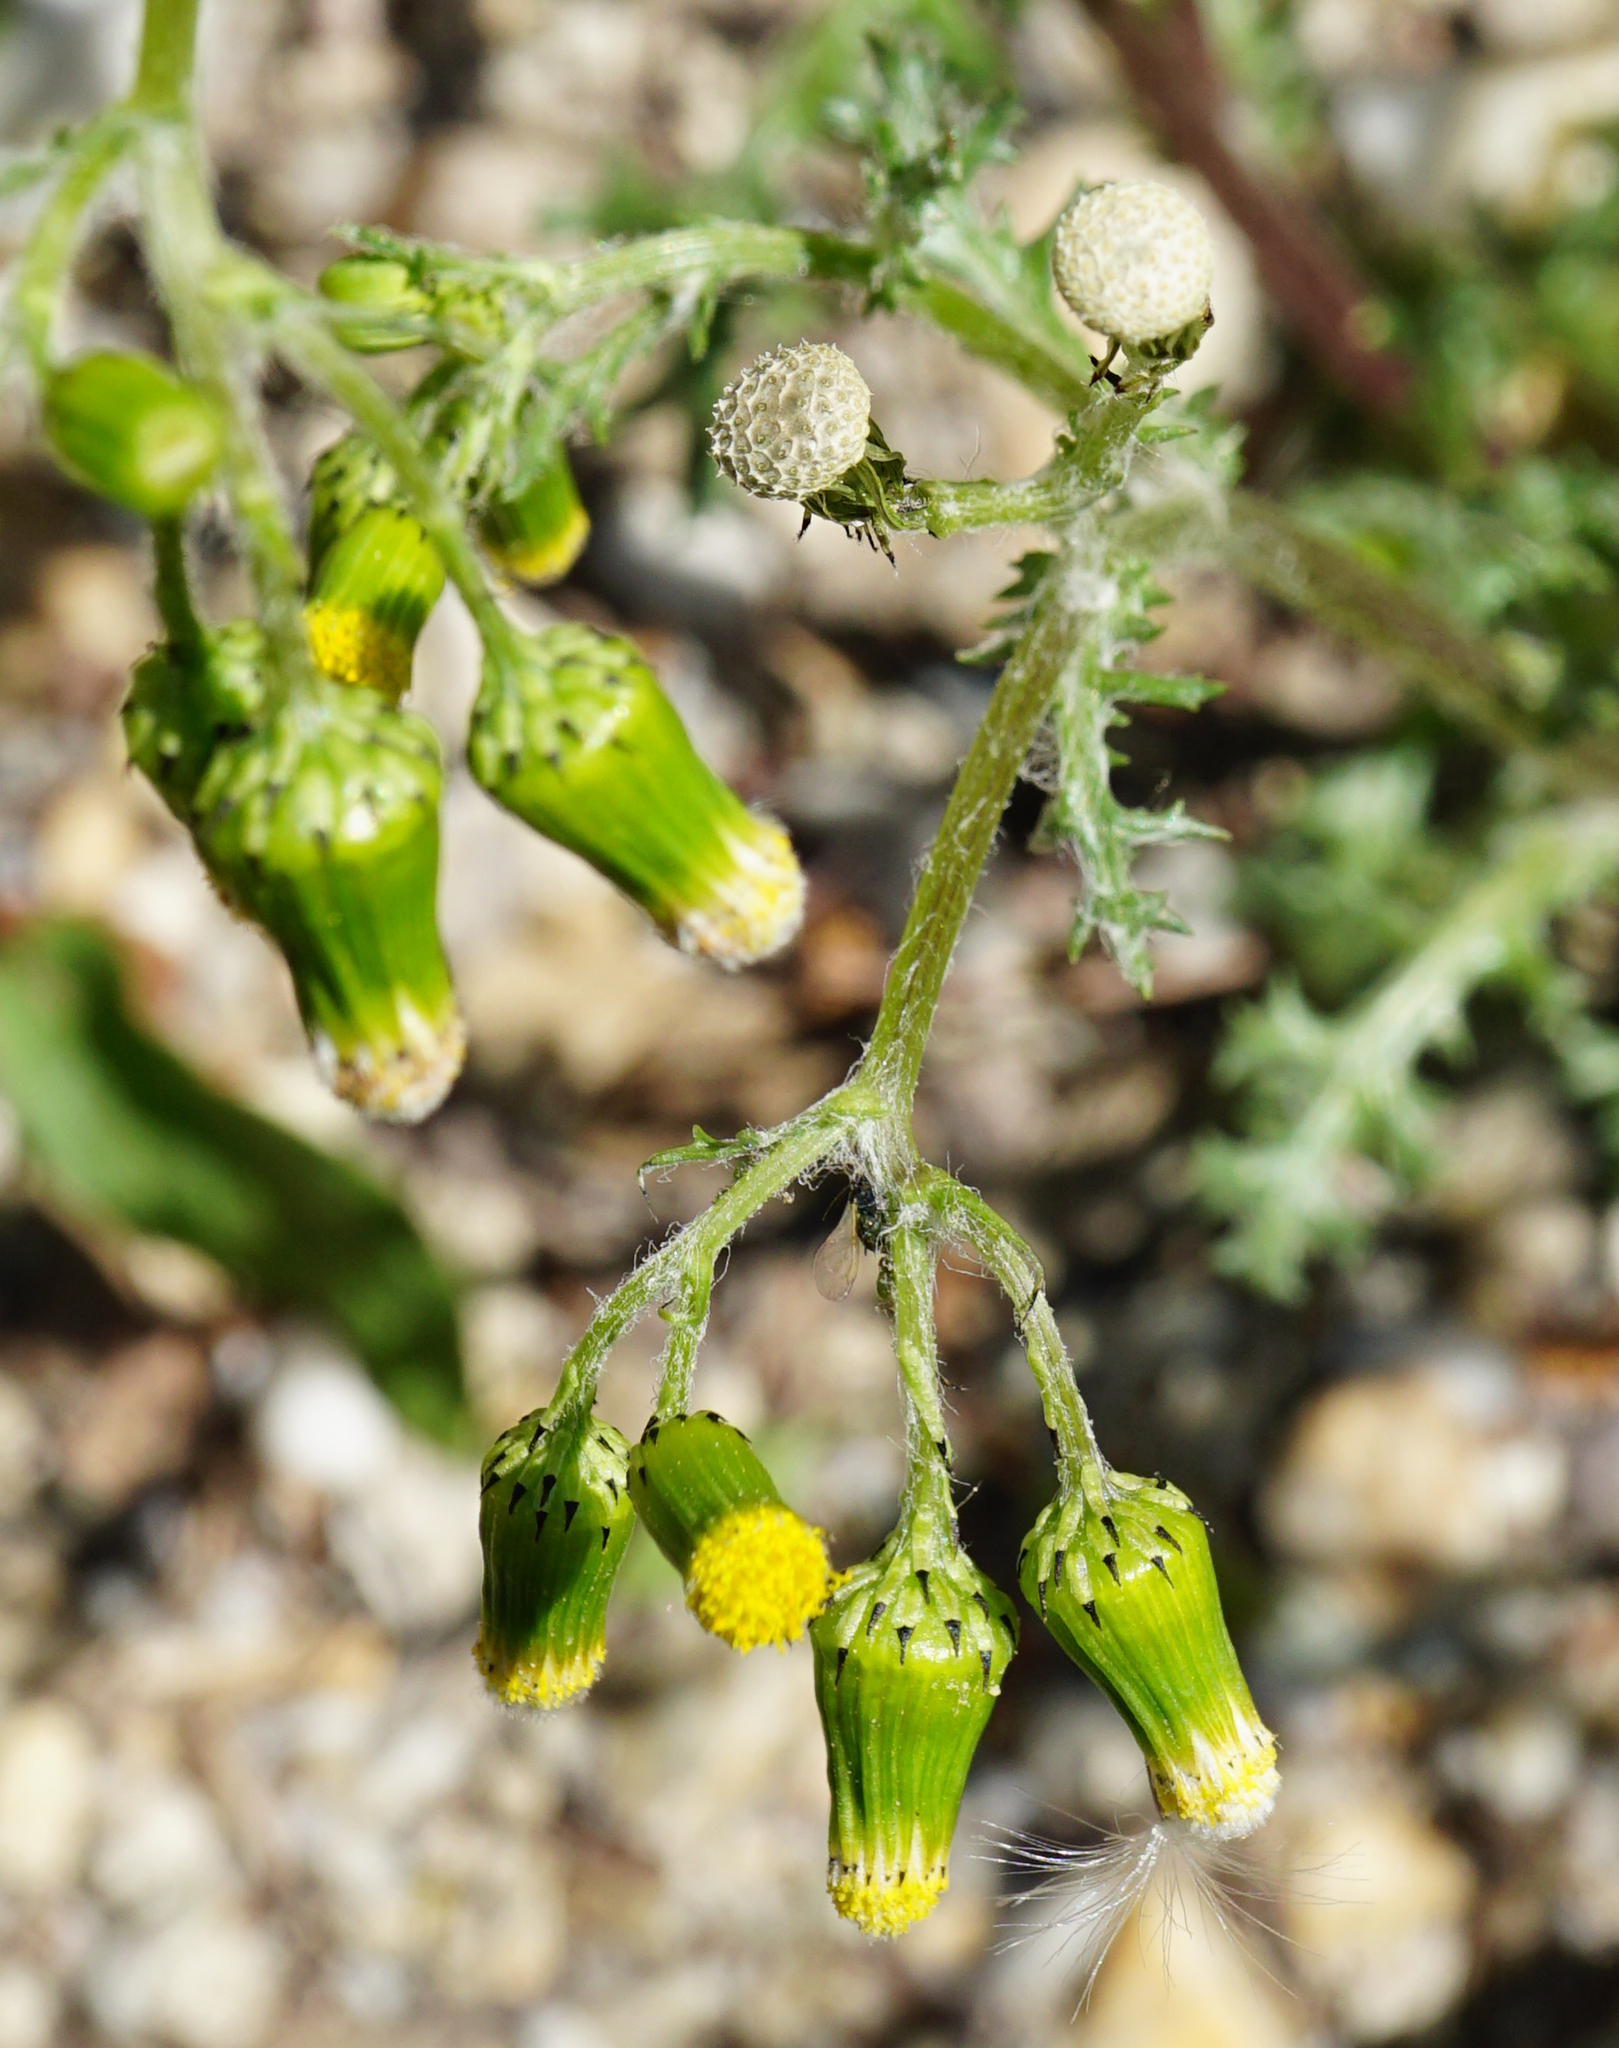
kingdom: Plantae
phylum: Tracheophyta
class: Magnoliopsida
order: Asterales
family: Asteraceae
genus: Senecio
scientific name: Senecio vulgaris
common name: Old-man-in-the-spring
